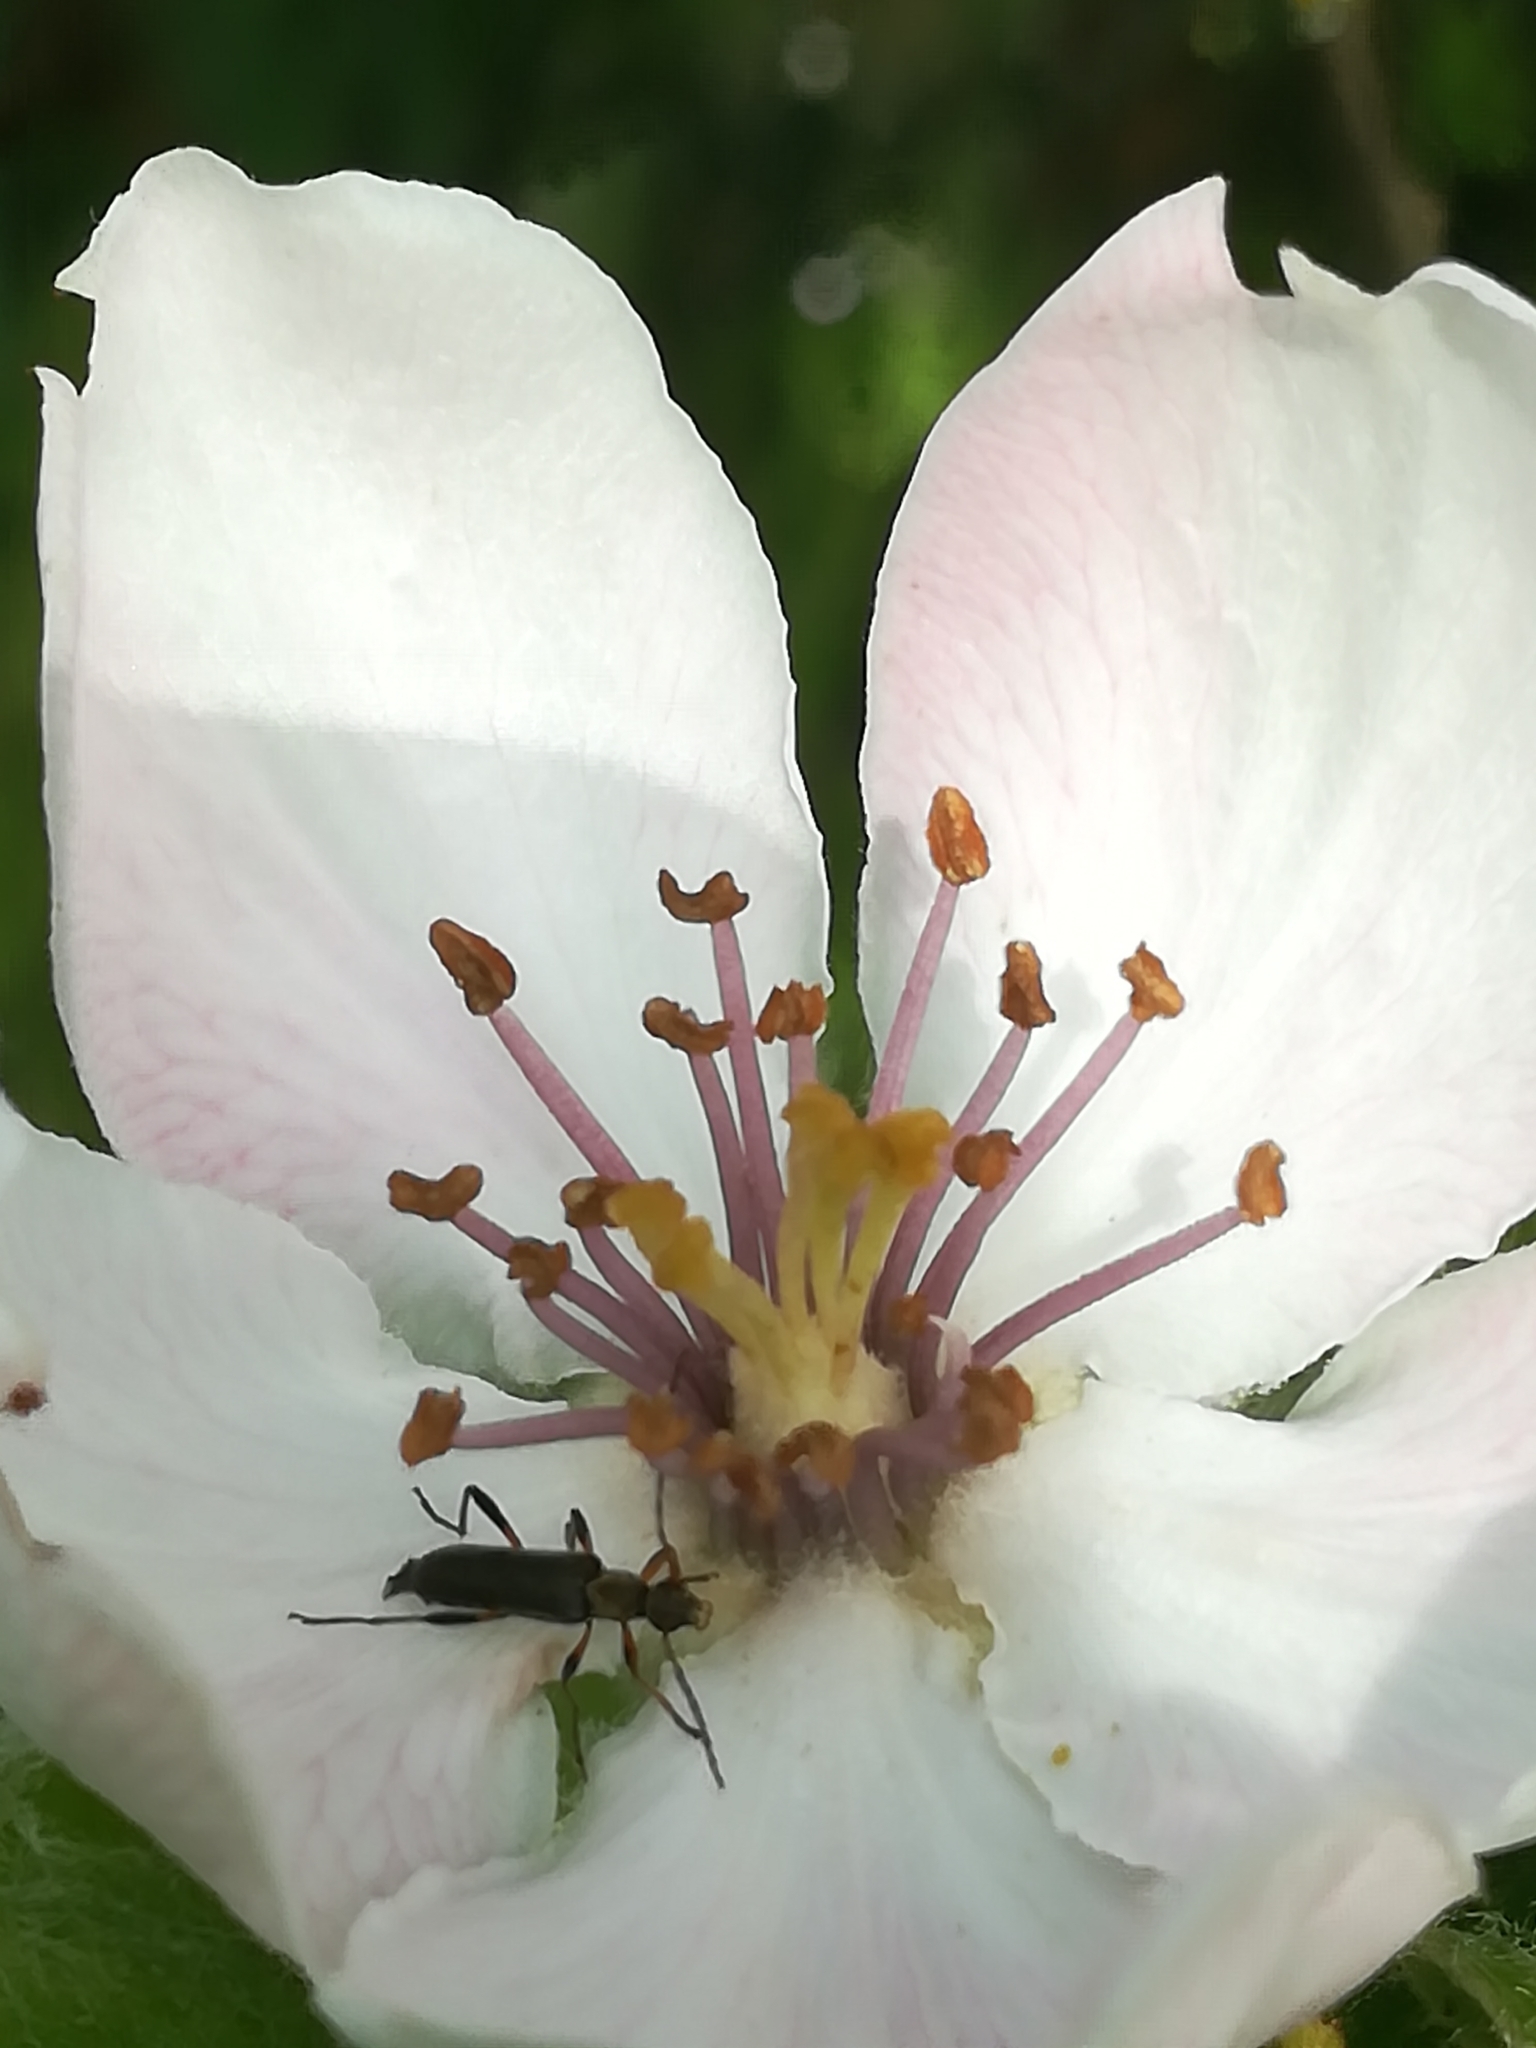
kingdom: Animalia
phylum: Arthropoda
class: Insecta
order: Coleoptera
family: Cerambycidae
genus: Grammoptera
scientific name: Grammoptera ruficornis
